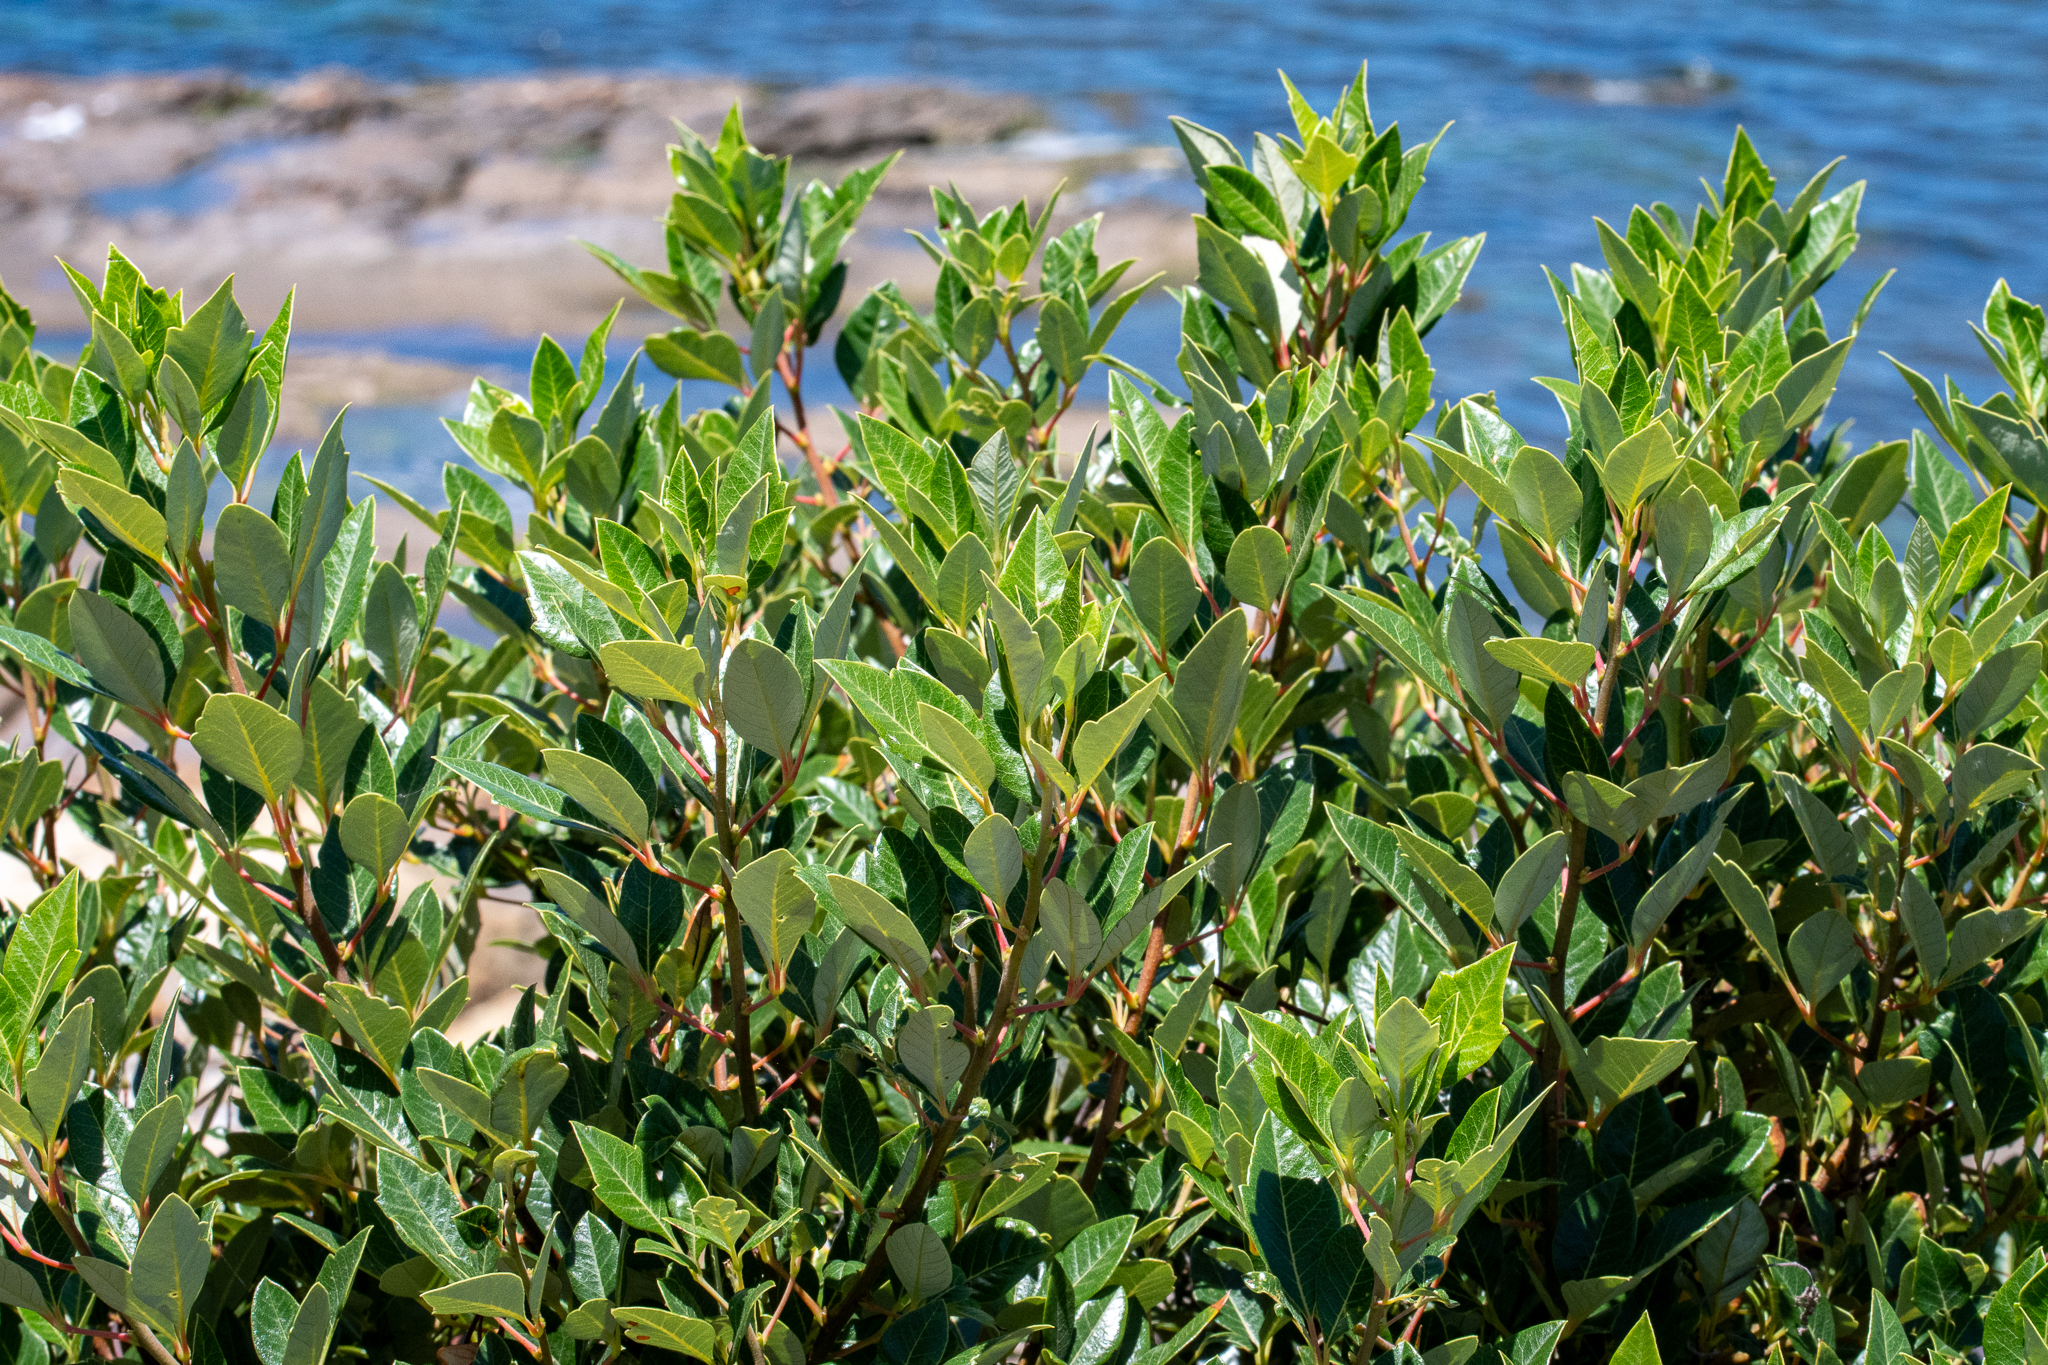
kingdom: Plantae
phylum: Tracheophyta
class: Magnoliopsida
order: Sapindales
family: Anacardiaceae
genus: Searsia
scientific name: Searsia tomentosa
